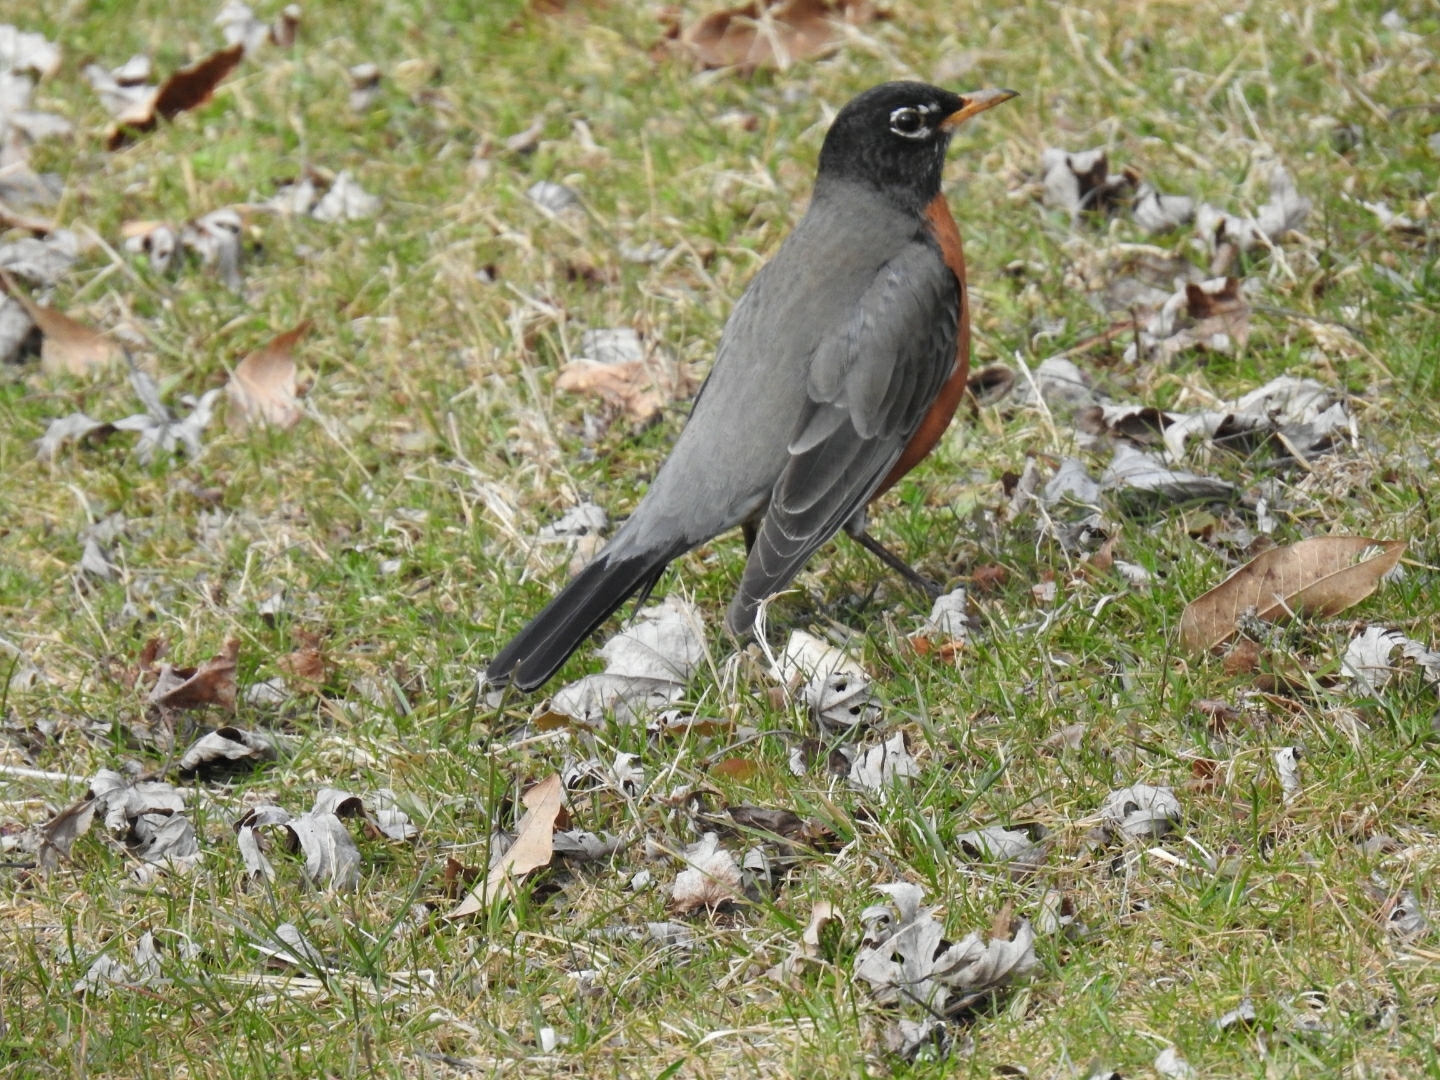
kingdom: Animalia
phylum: Chordata
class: Aves
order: Passeriformes
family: Turdidae
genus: Turdus
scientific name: Turdus migratorius
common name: American robin
